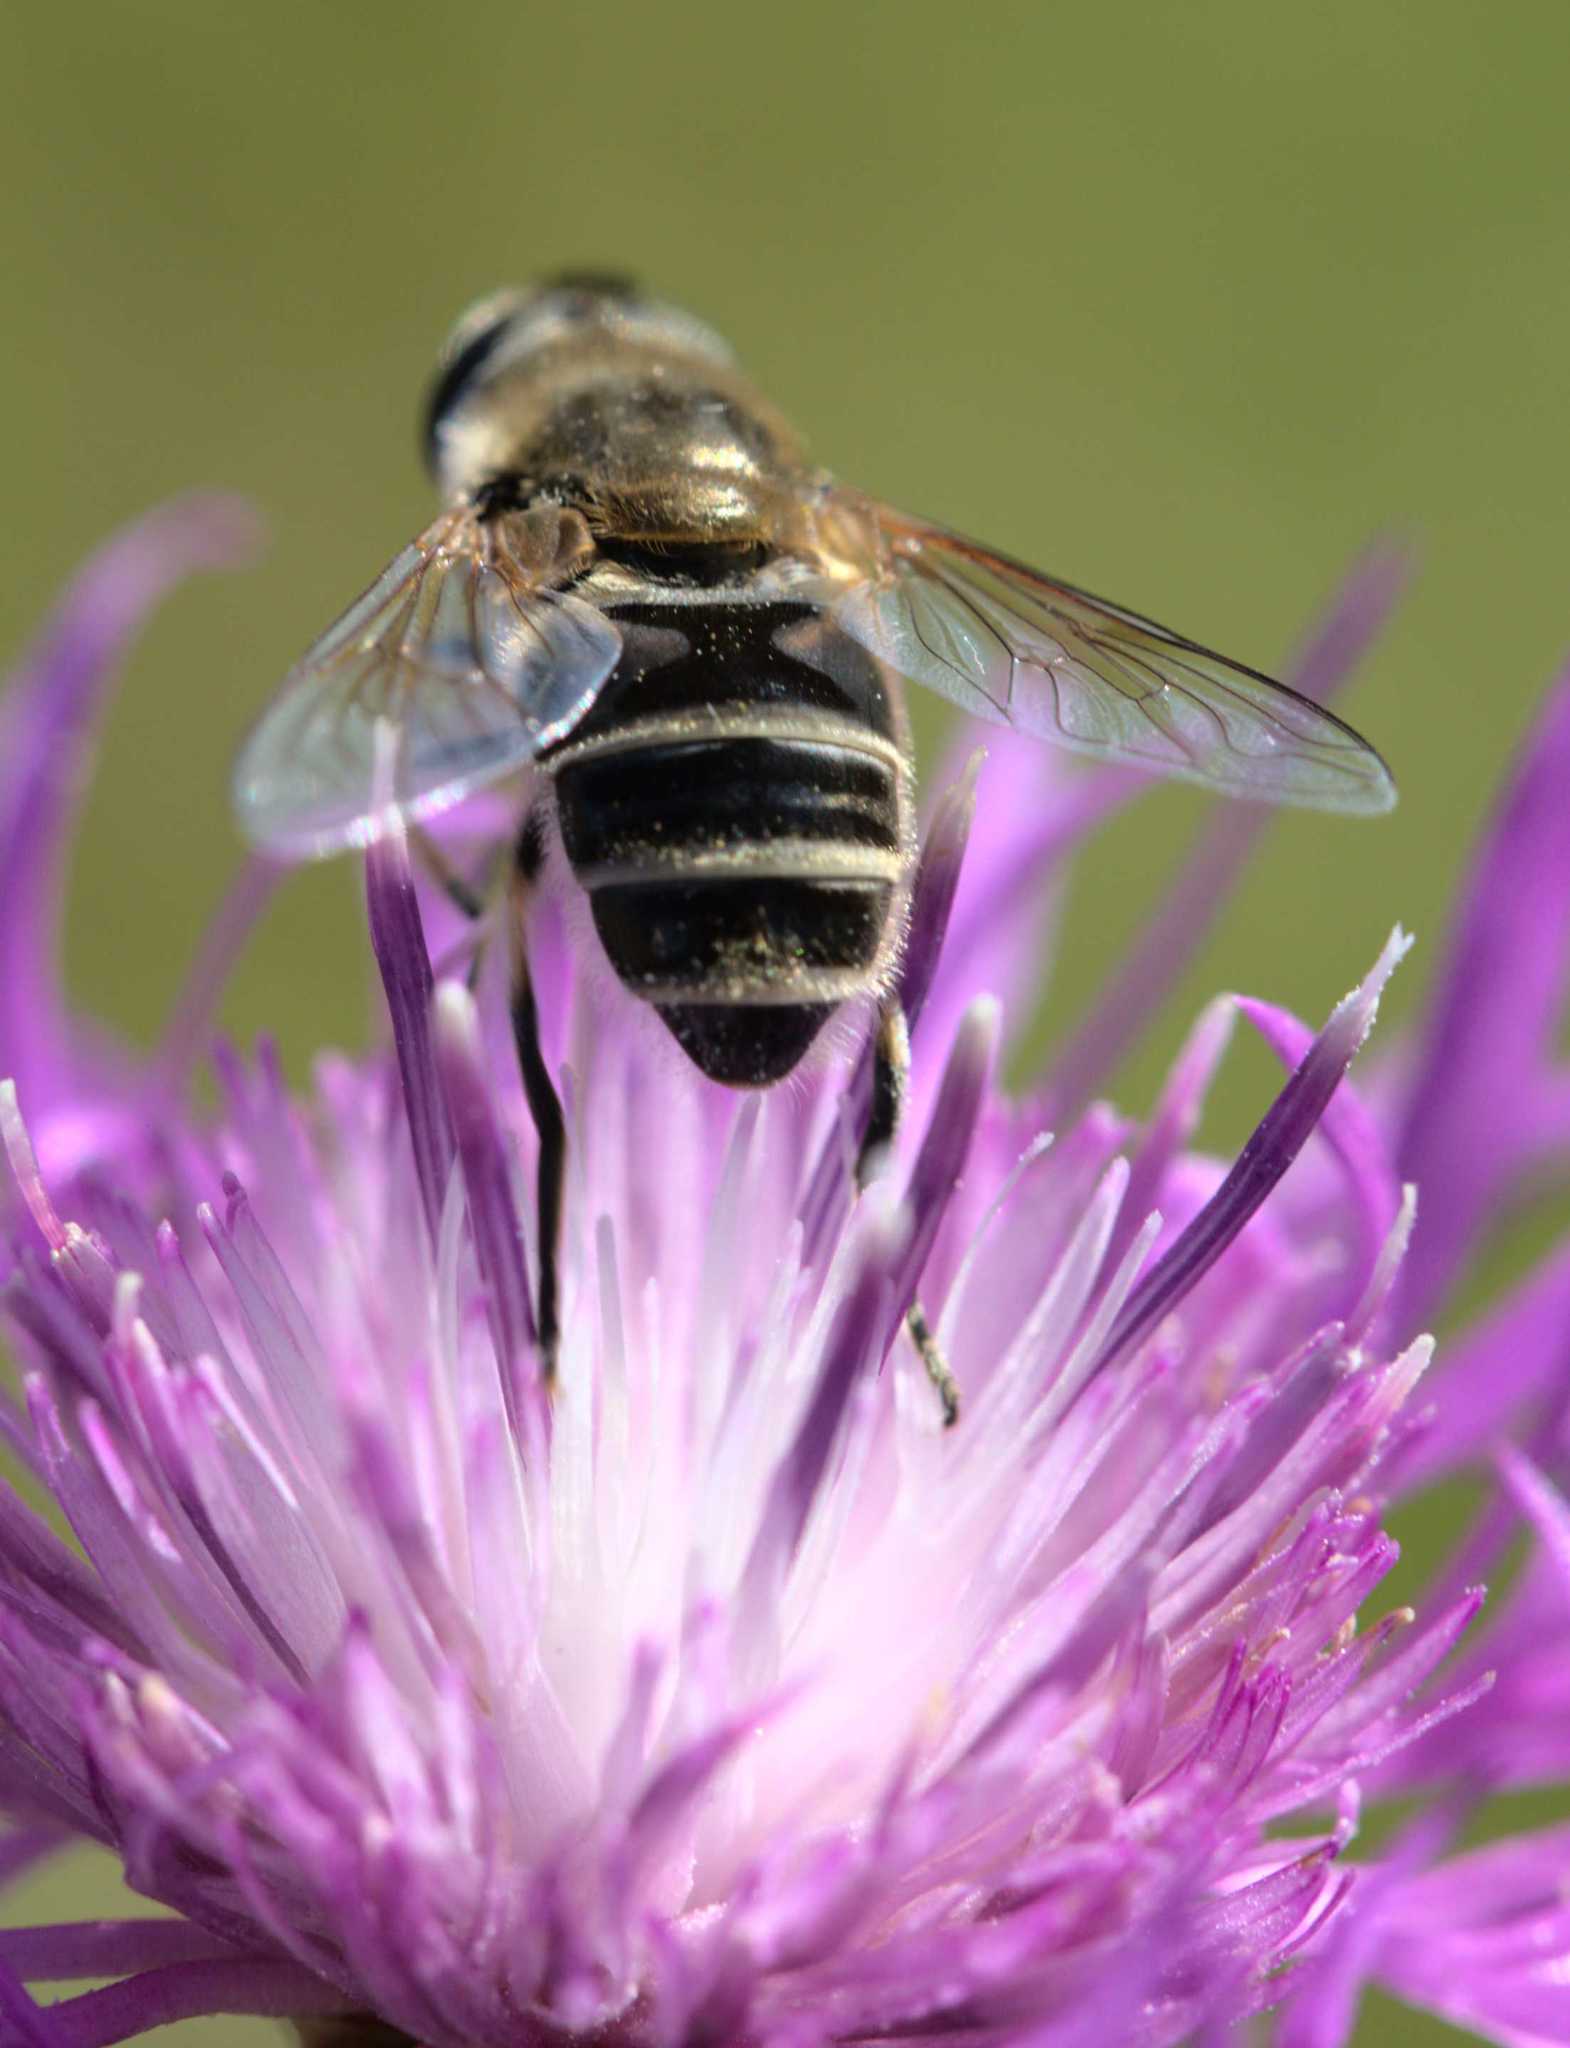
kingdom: Animalia
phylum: Arthropoda
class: Insecta
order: Diptera
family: Syrphidae
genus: Eristalis
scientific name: Eristalis arbustorum
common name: Hover fly
